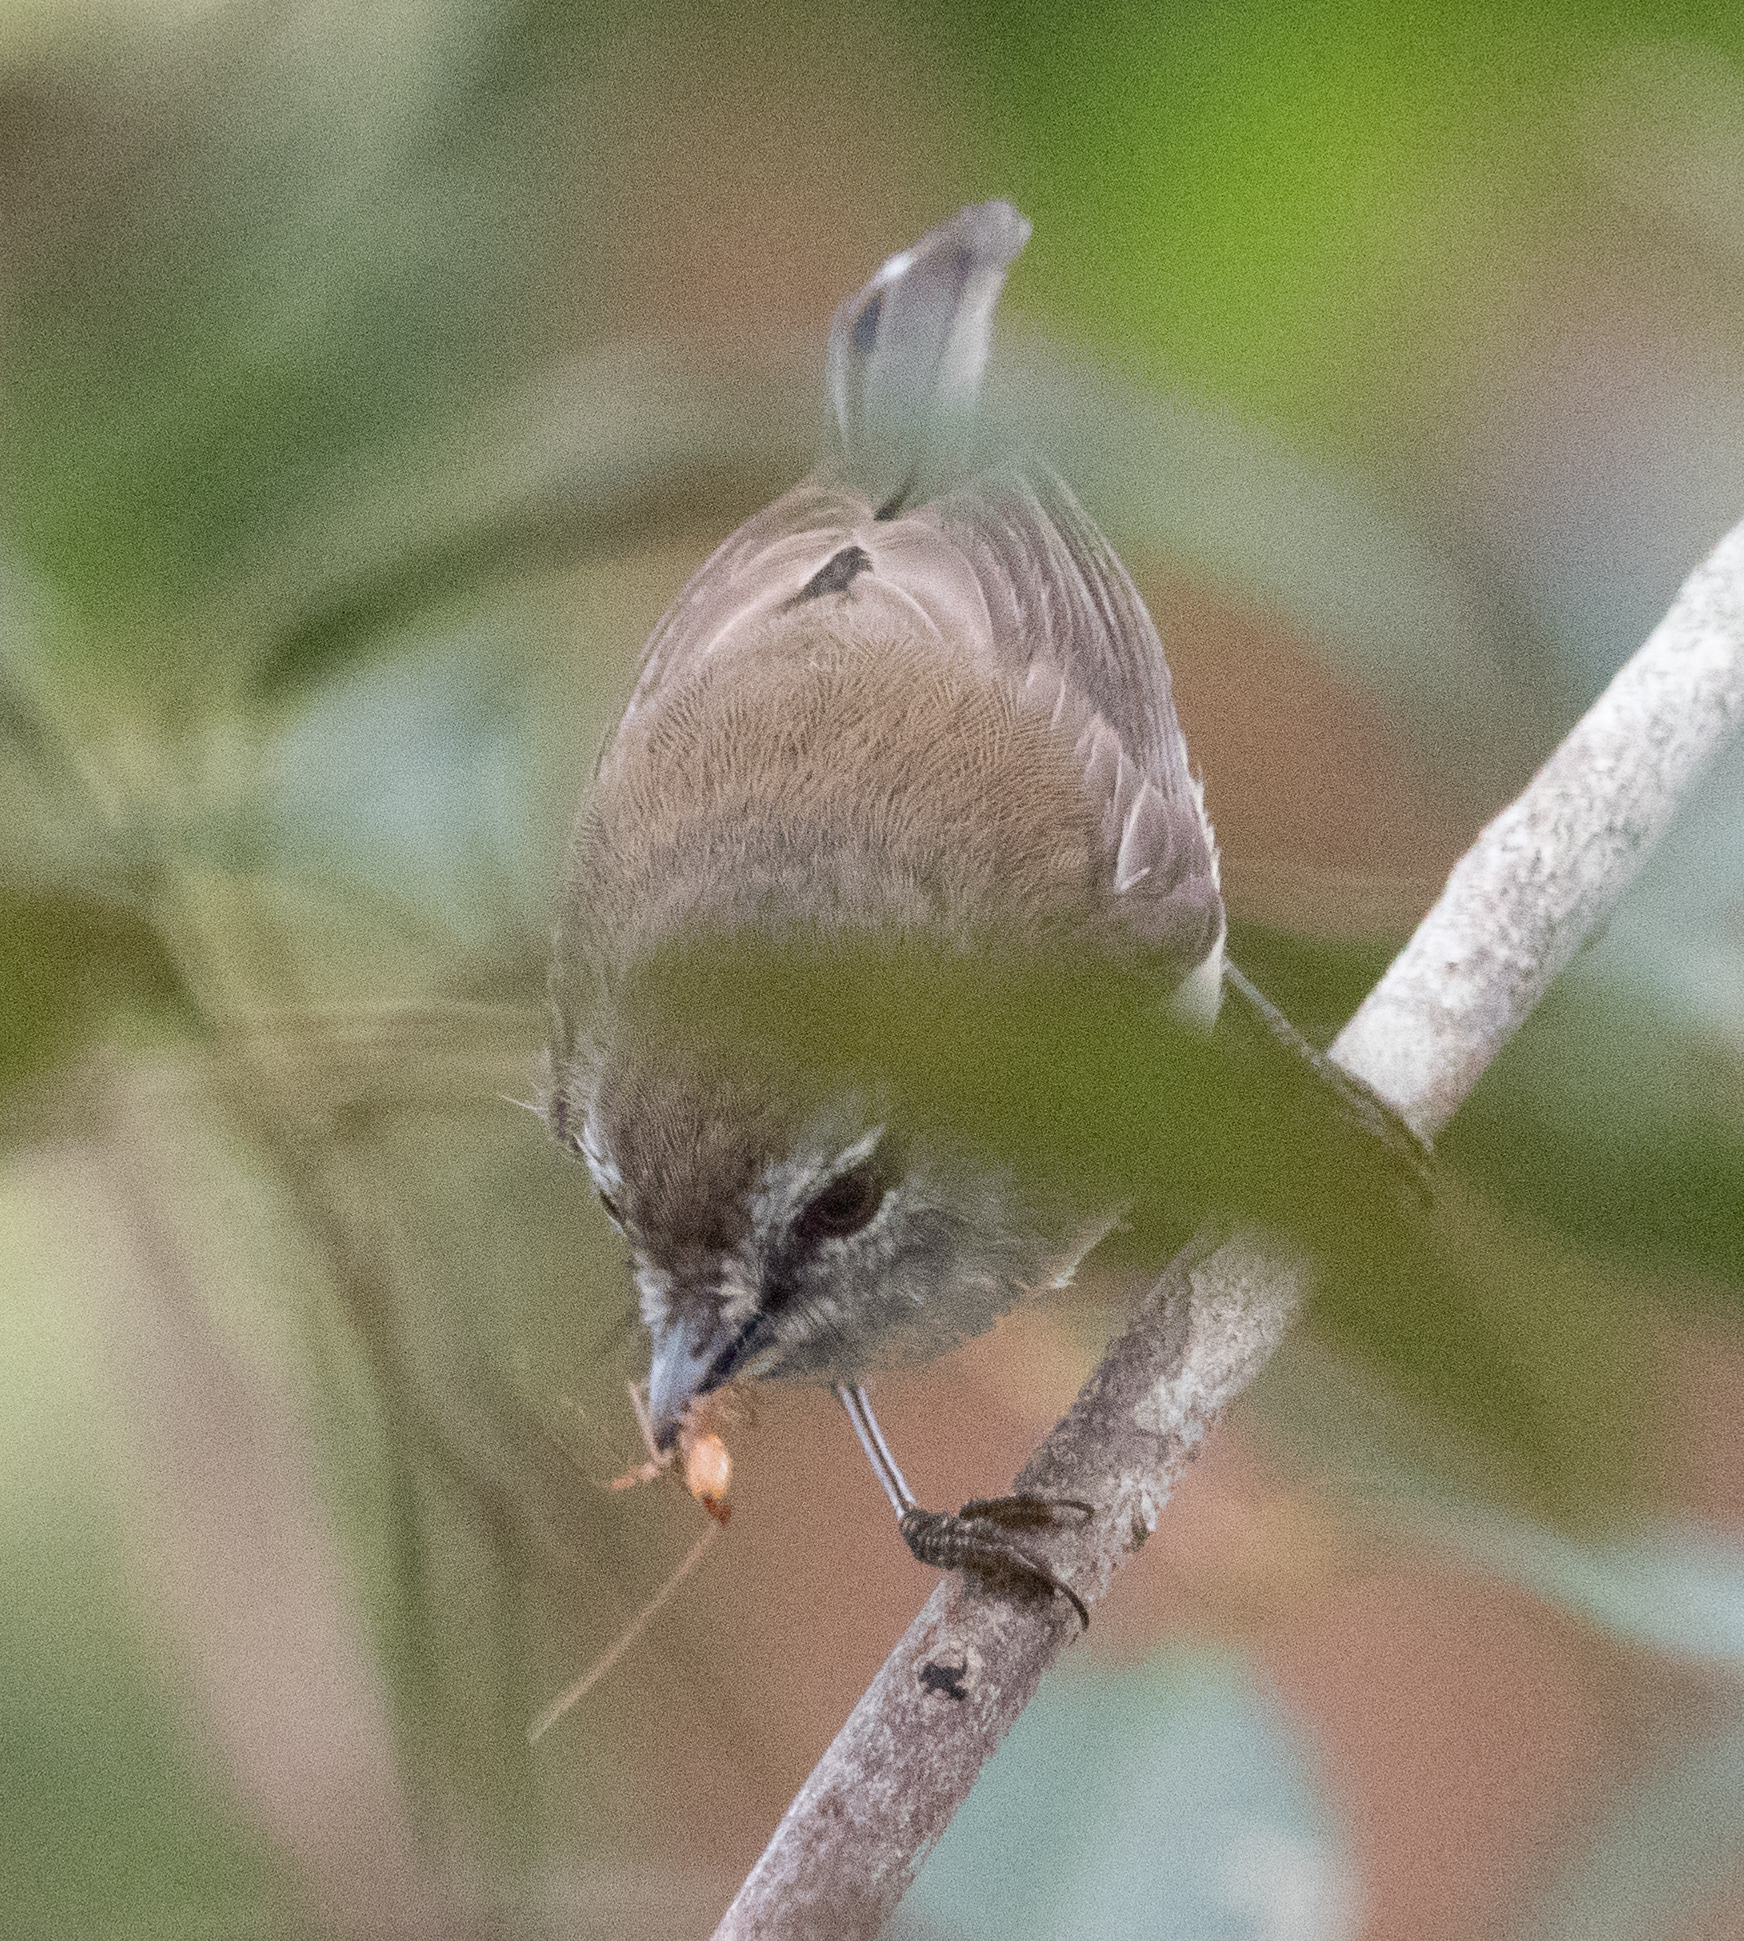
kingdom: Animalia
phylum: Chordata
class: Aves
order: Passeriformes
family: Acanthizidae
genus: Sericornis
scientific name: Sericornis frontalis
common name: White-browed scrubwren
